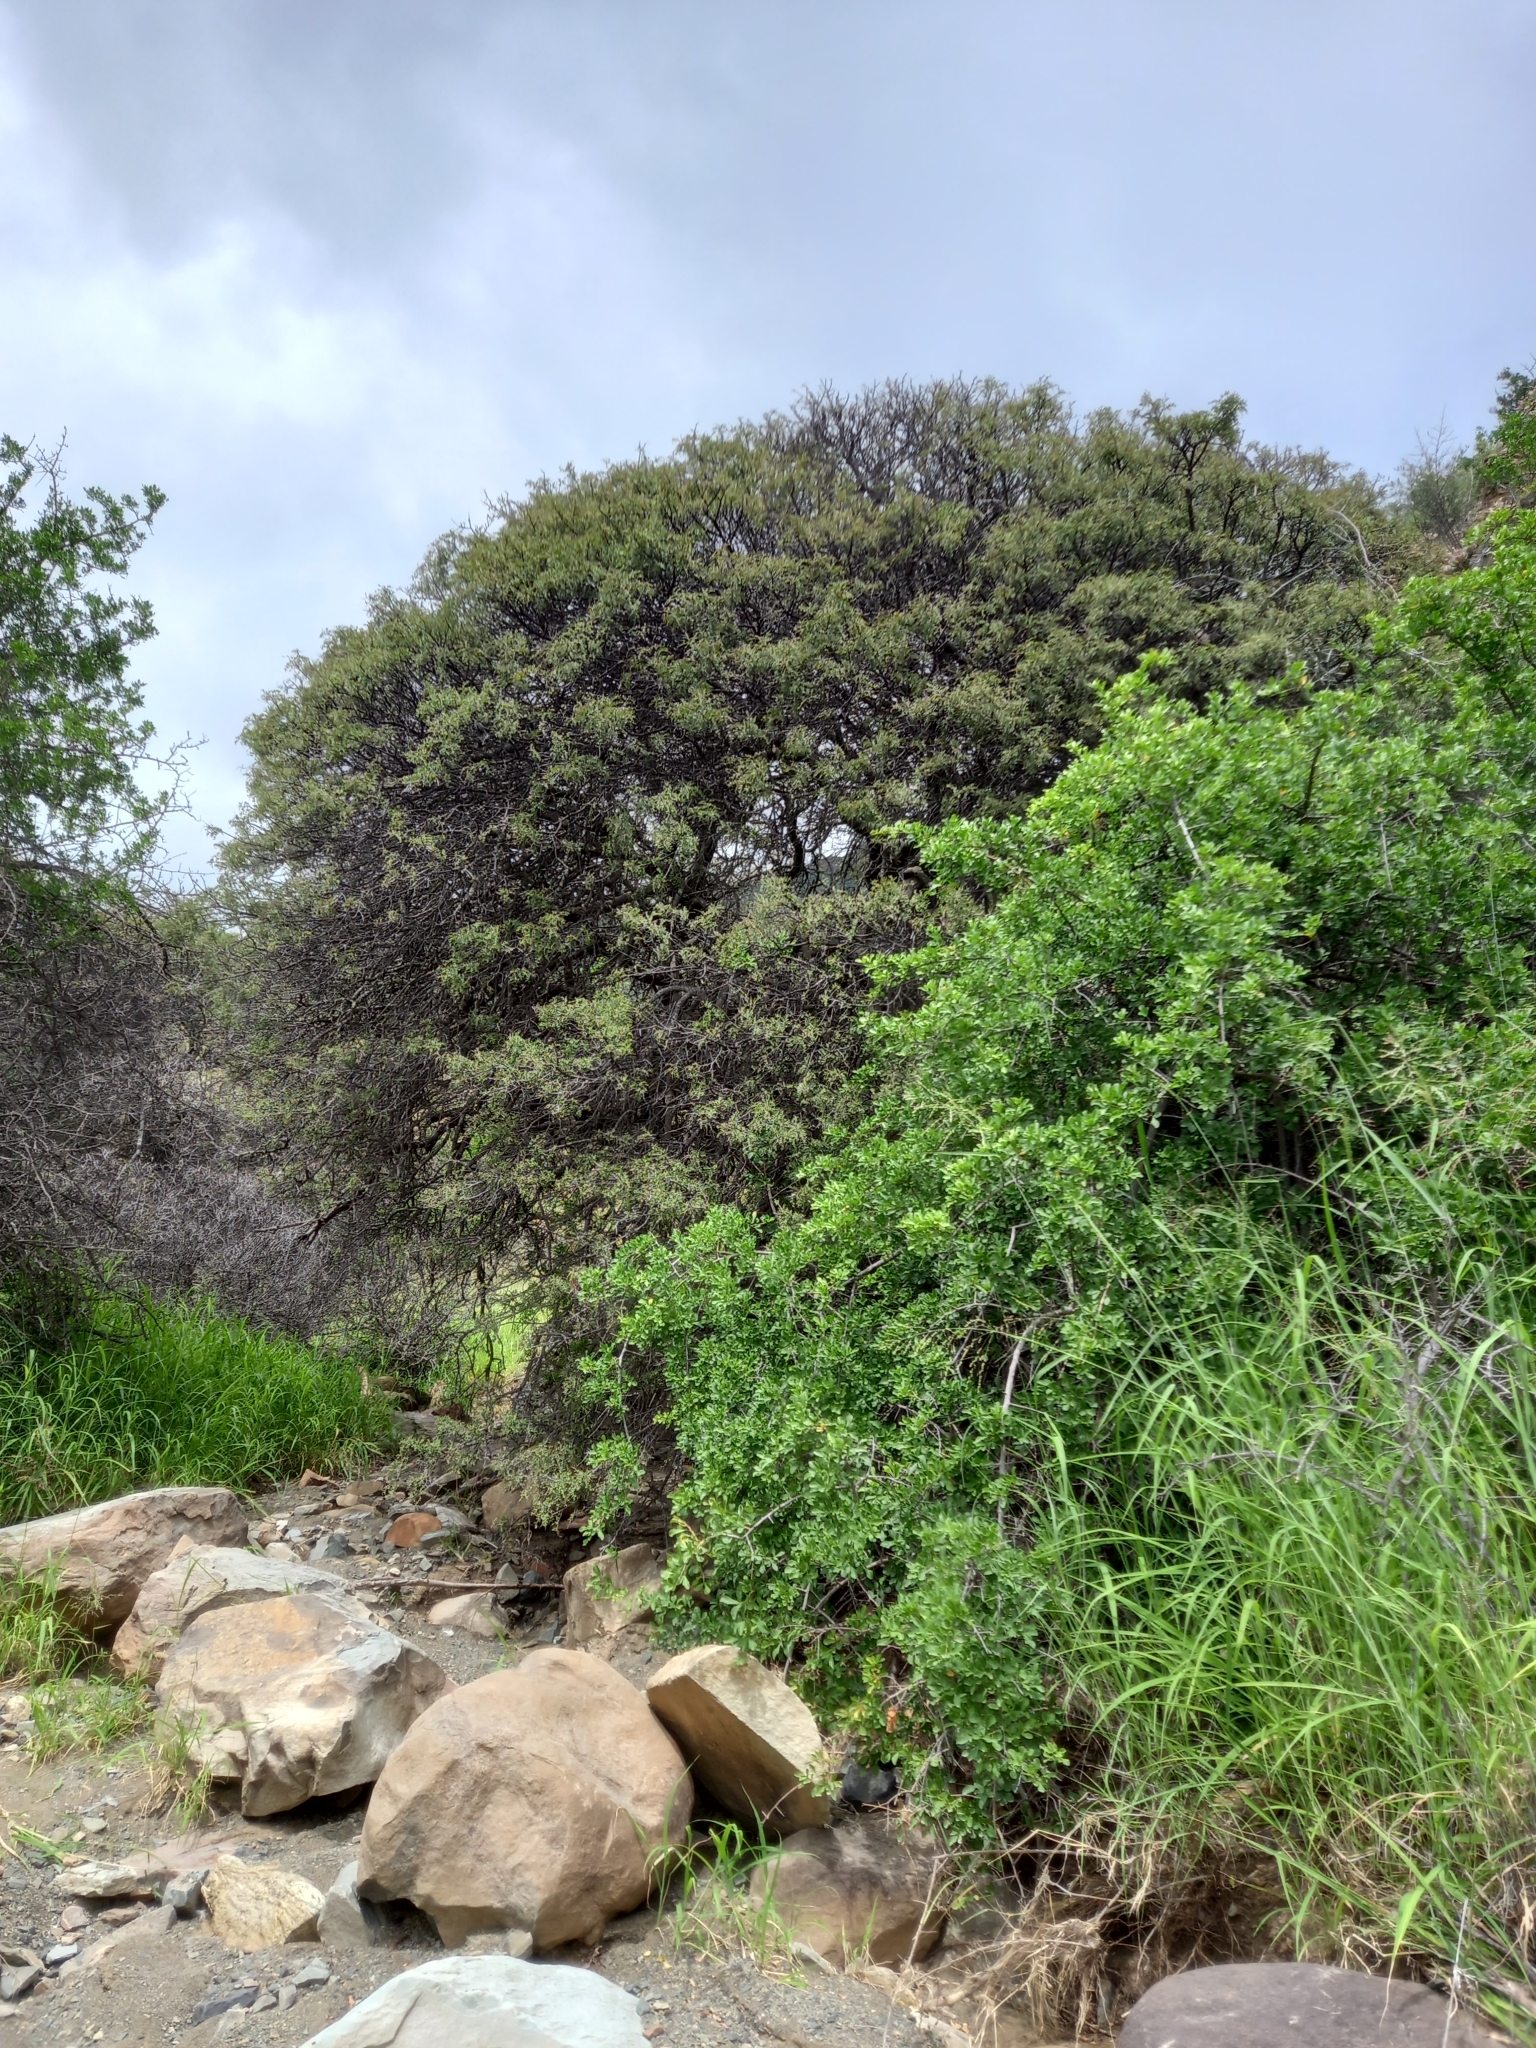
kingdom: Plantae
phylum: Tracheophyta
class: Magnoliopsida
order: Fabales
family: Fabaceae
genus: Schotia
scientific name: Schotia afra
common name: Hottentot's bean
